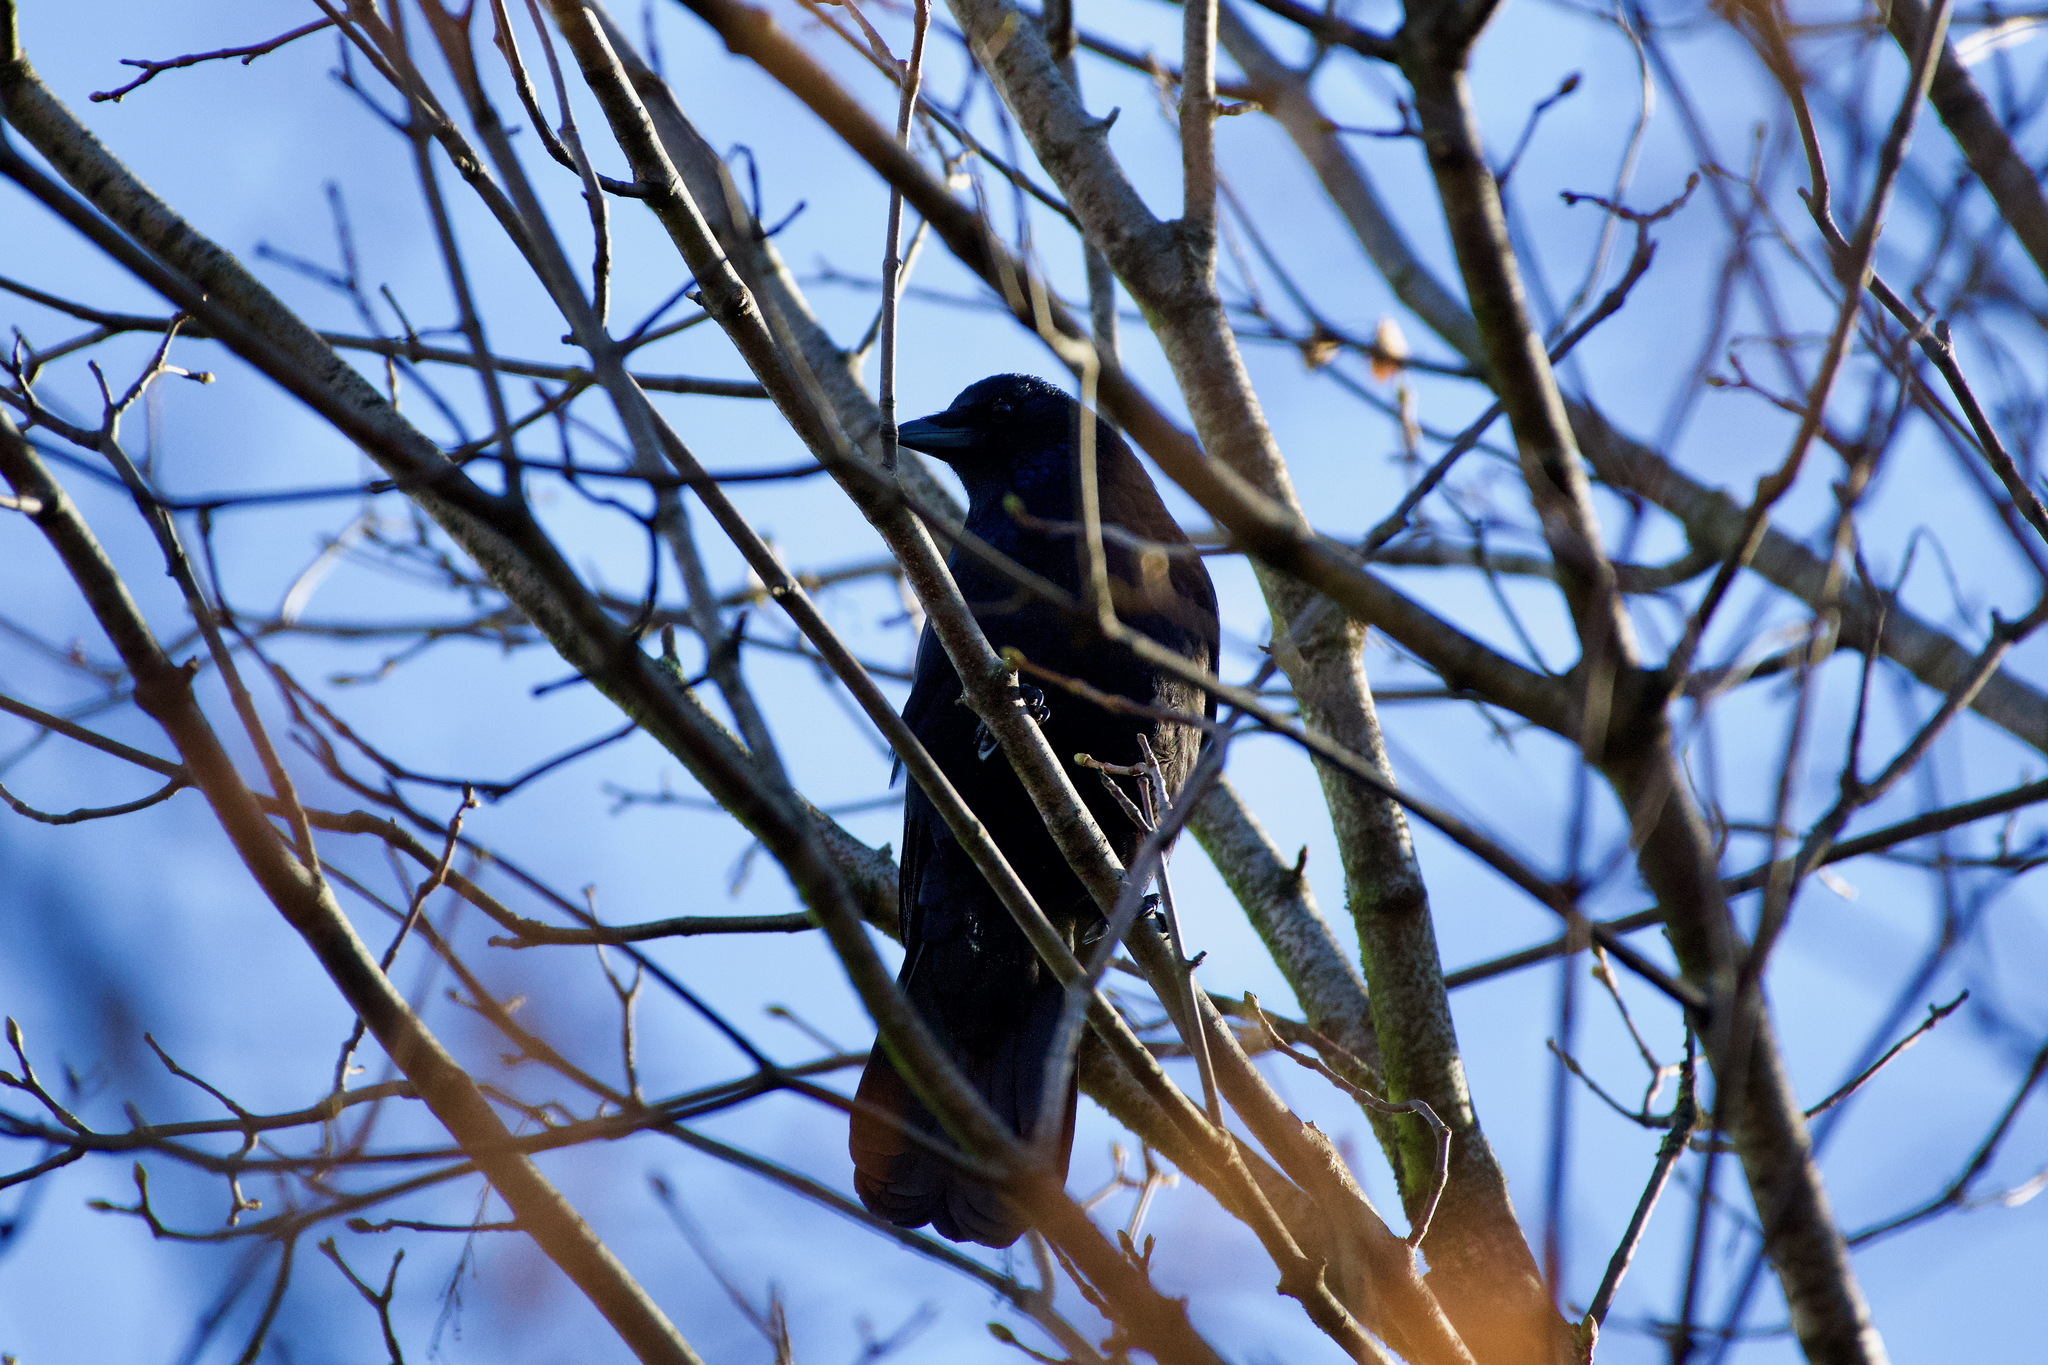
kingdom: Animalia
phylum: Chordata
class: Aves
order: Passeriformes
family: Corvidae
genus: Corvus
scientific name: Corvus corone
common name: Carrion crow
